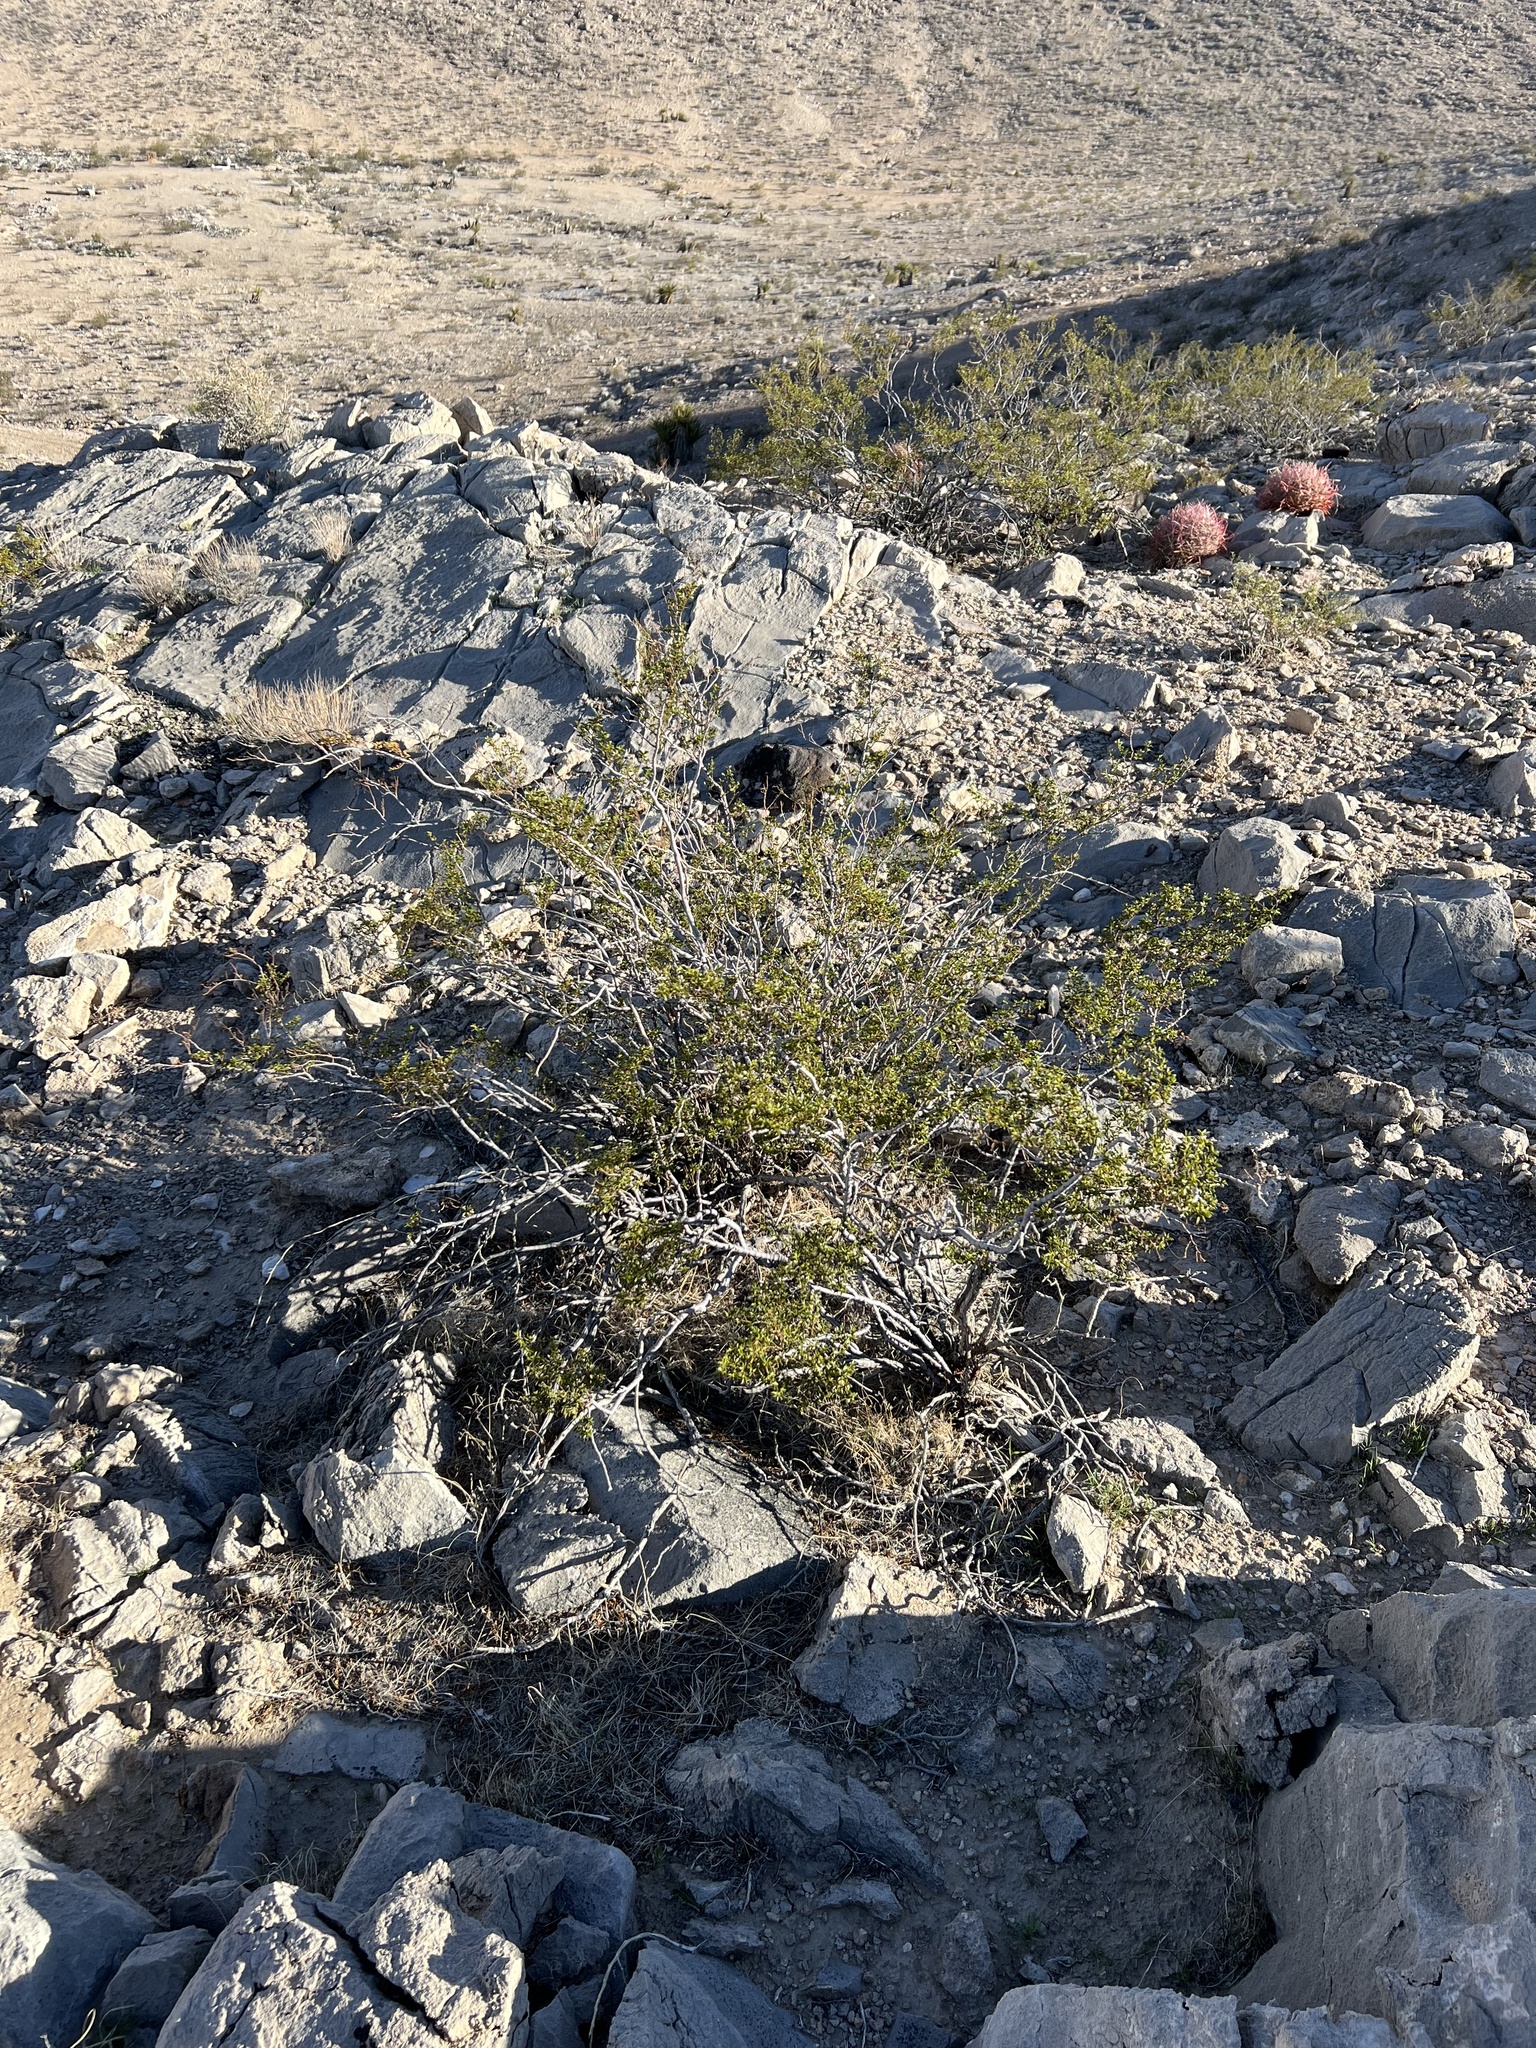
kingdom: Plantae
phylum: Tracheophyta
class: Magnoliopsida
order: Zygophyllales
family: Zygophyllaceae
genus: Larrea
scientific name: Larrea tridentata
